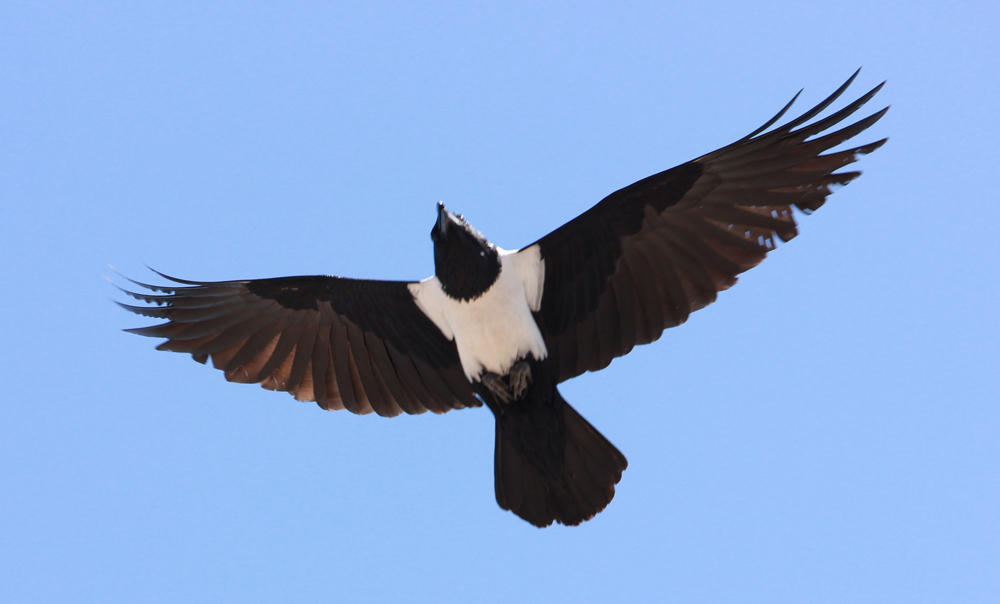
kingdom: Animalia
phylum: Chordata
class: Aves
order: Passeriformes
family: Corvidae
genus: Corvus
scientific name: Corvus albus
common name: Pied crow
